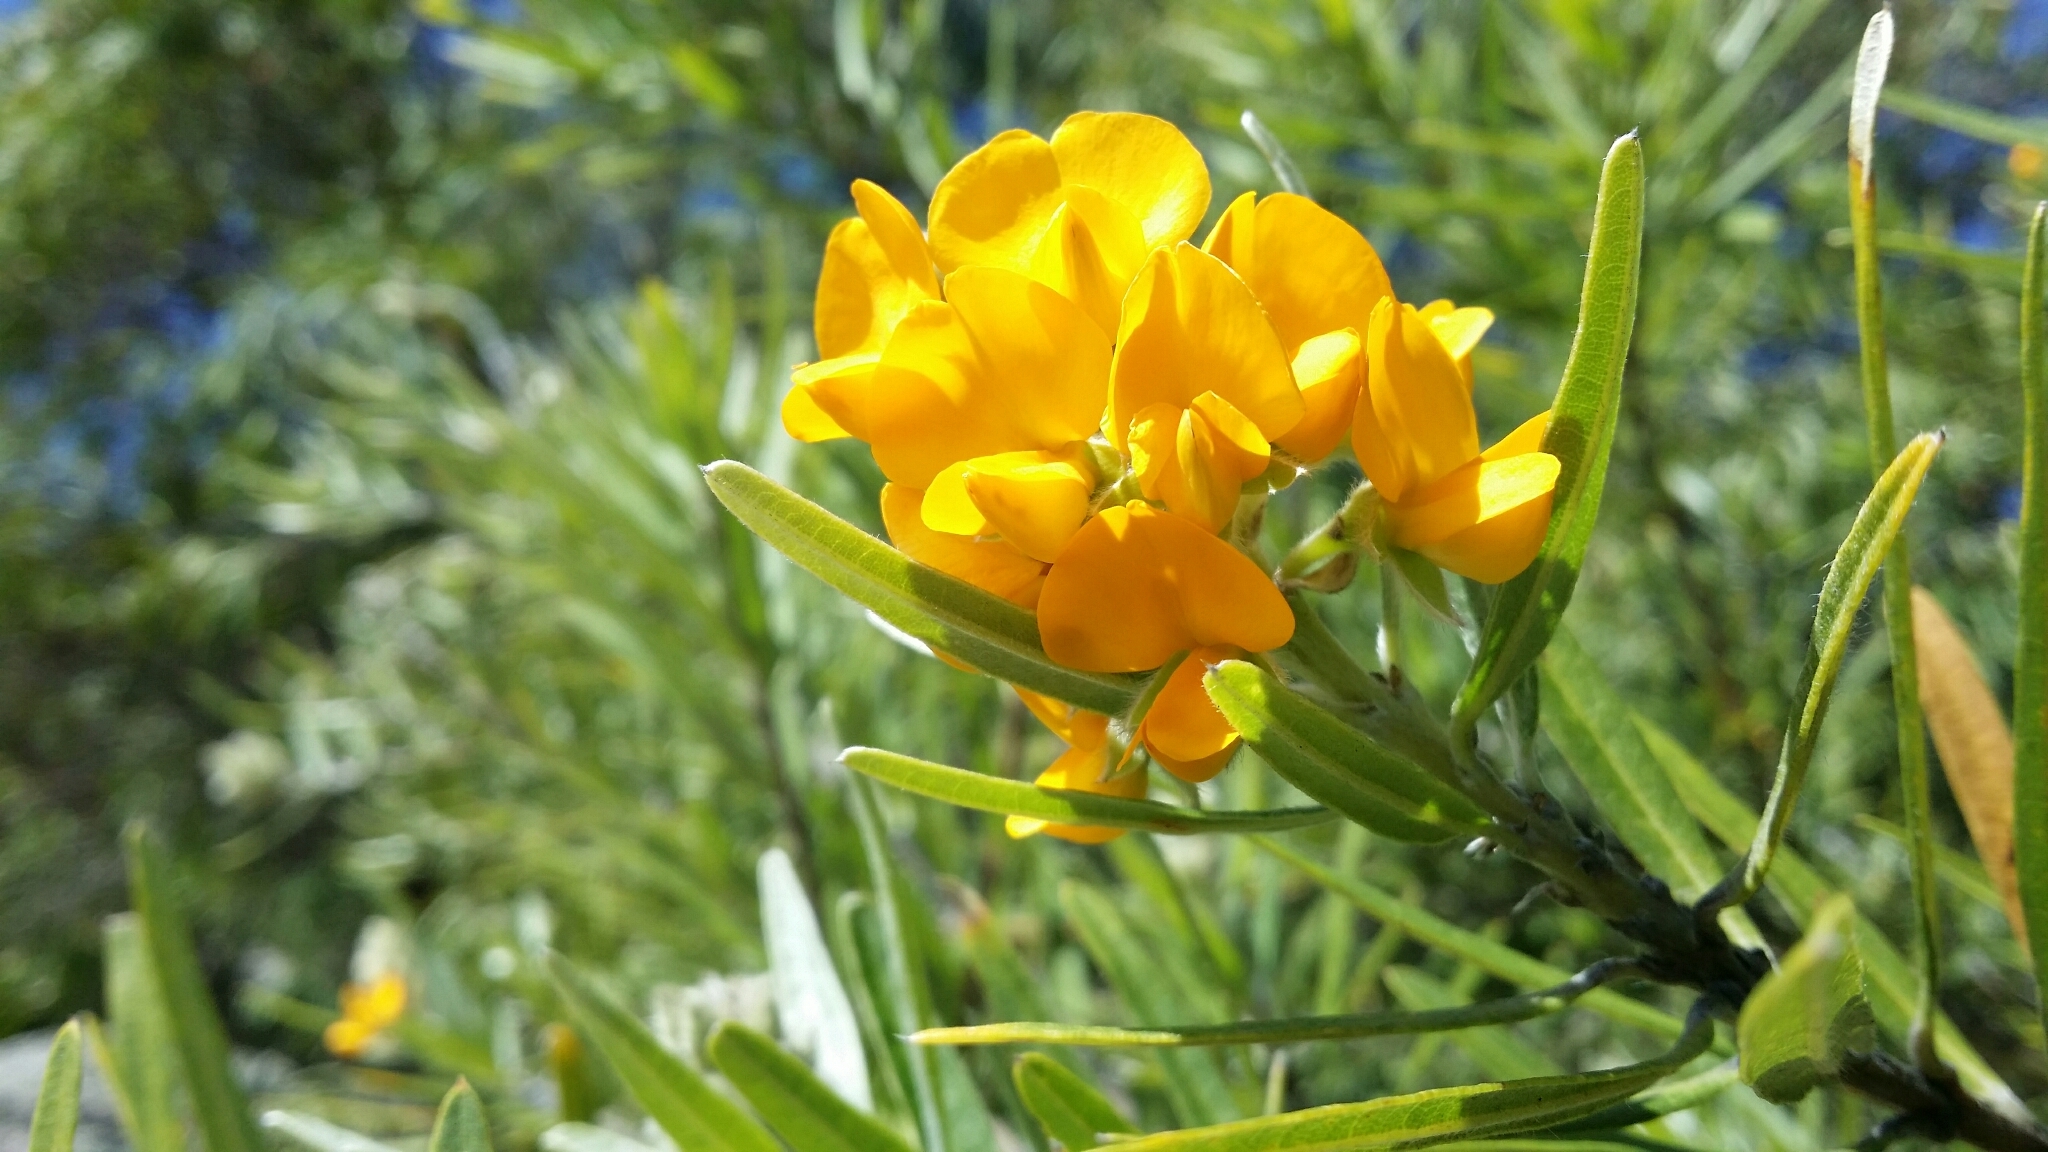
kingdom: Plantae
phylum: Tracheophyta
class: Magnoliopsida
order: Fabales
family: Fabaceae
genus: Callistachys
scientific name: Callistachys lanceolata
